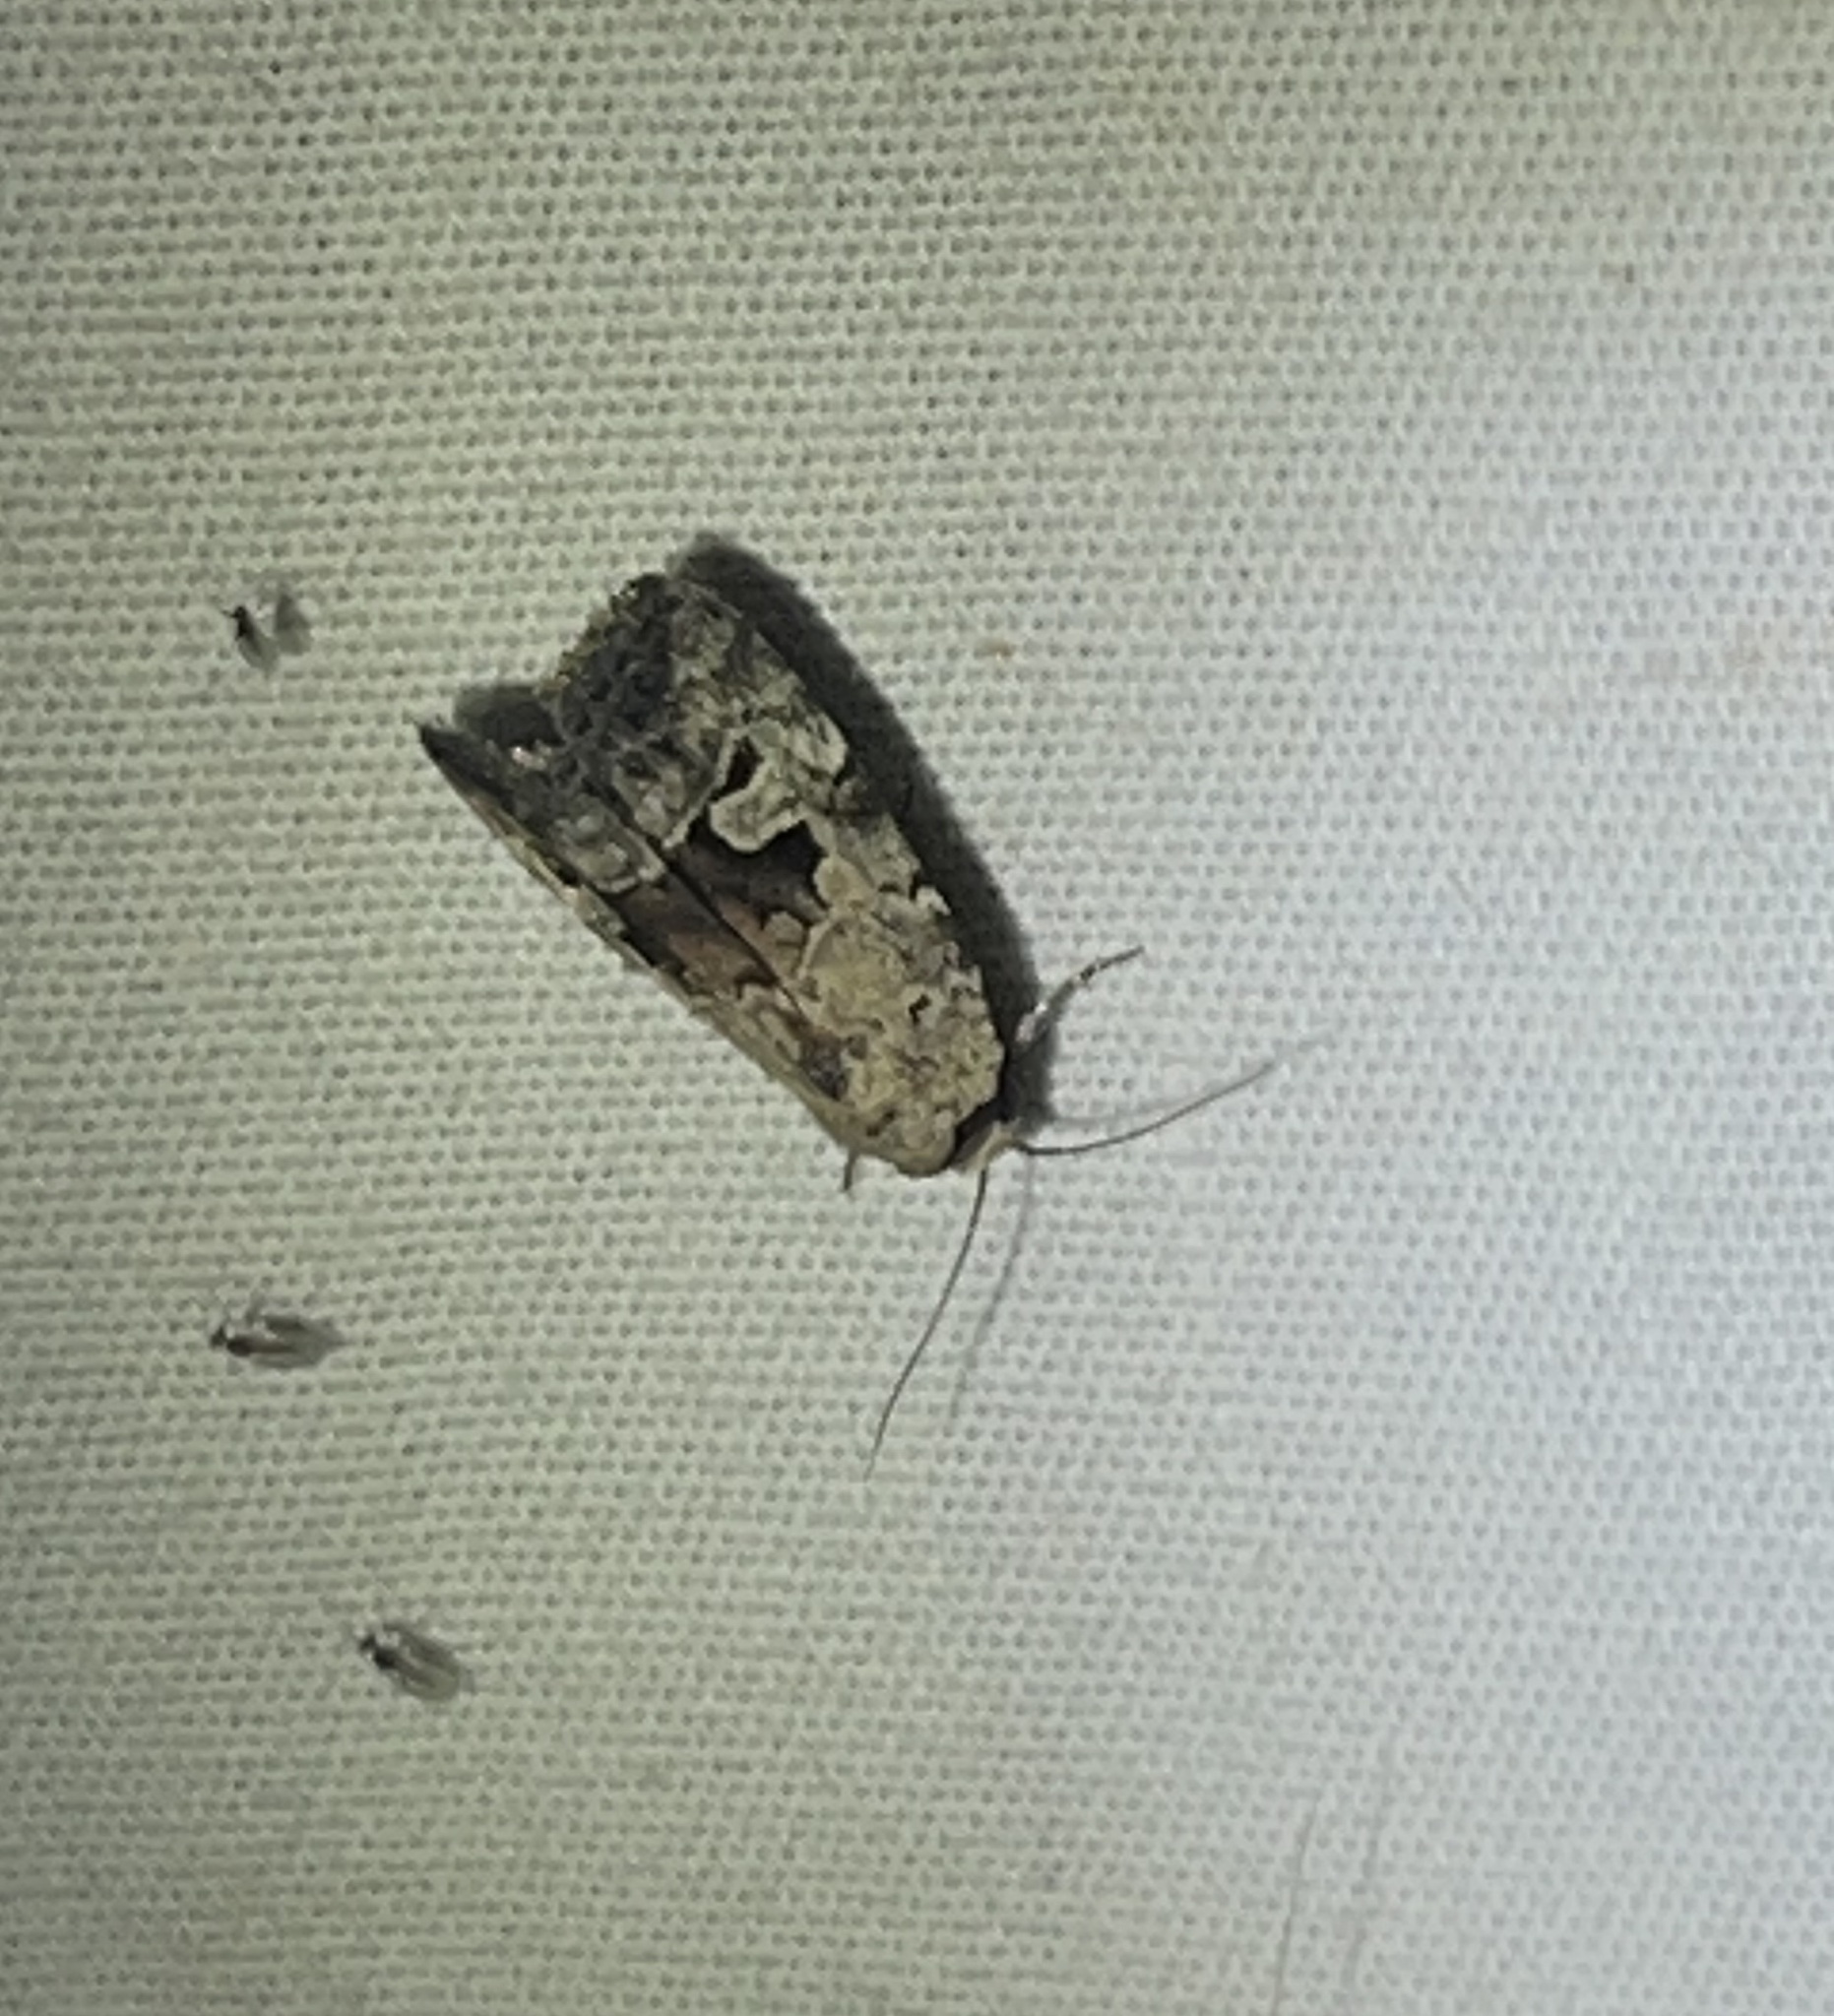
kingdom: Animalia
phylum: Arthropoda
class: Insecta
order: Lepidoptera
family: Noctuidae
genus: Elaphria
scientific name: Elaphria festivoides
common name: Festive midget
